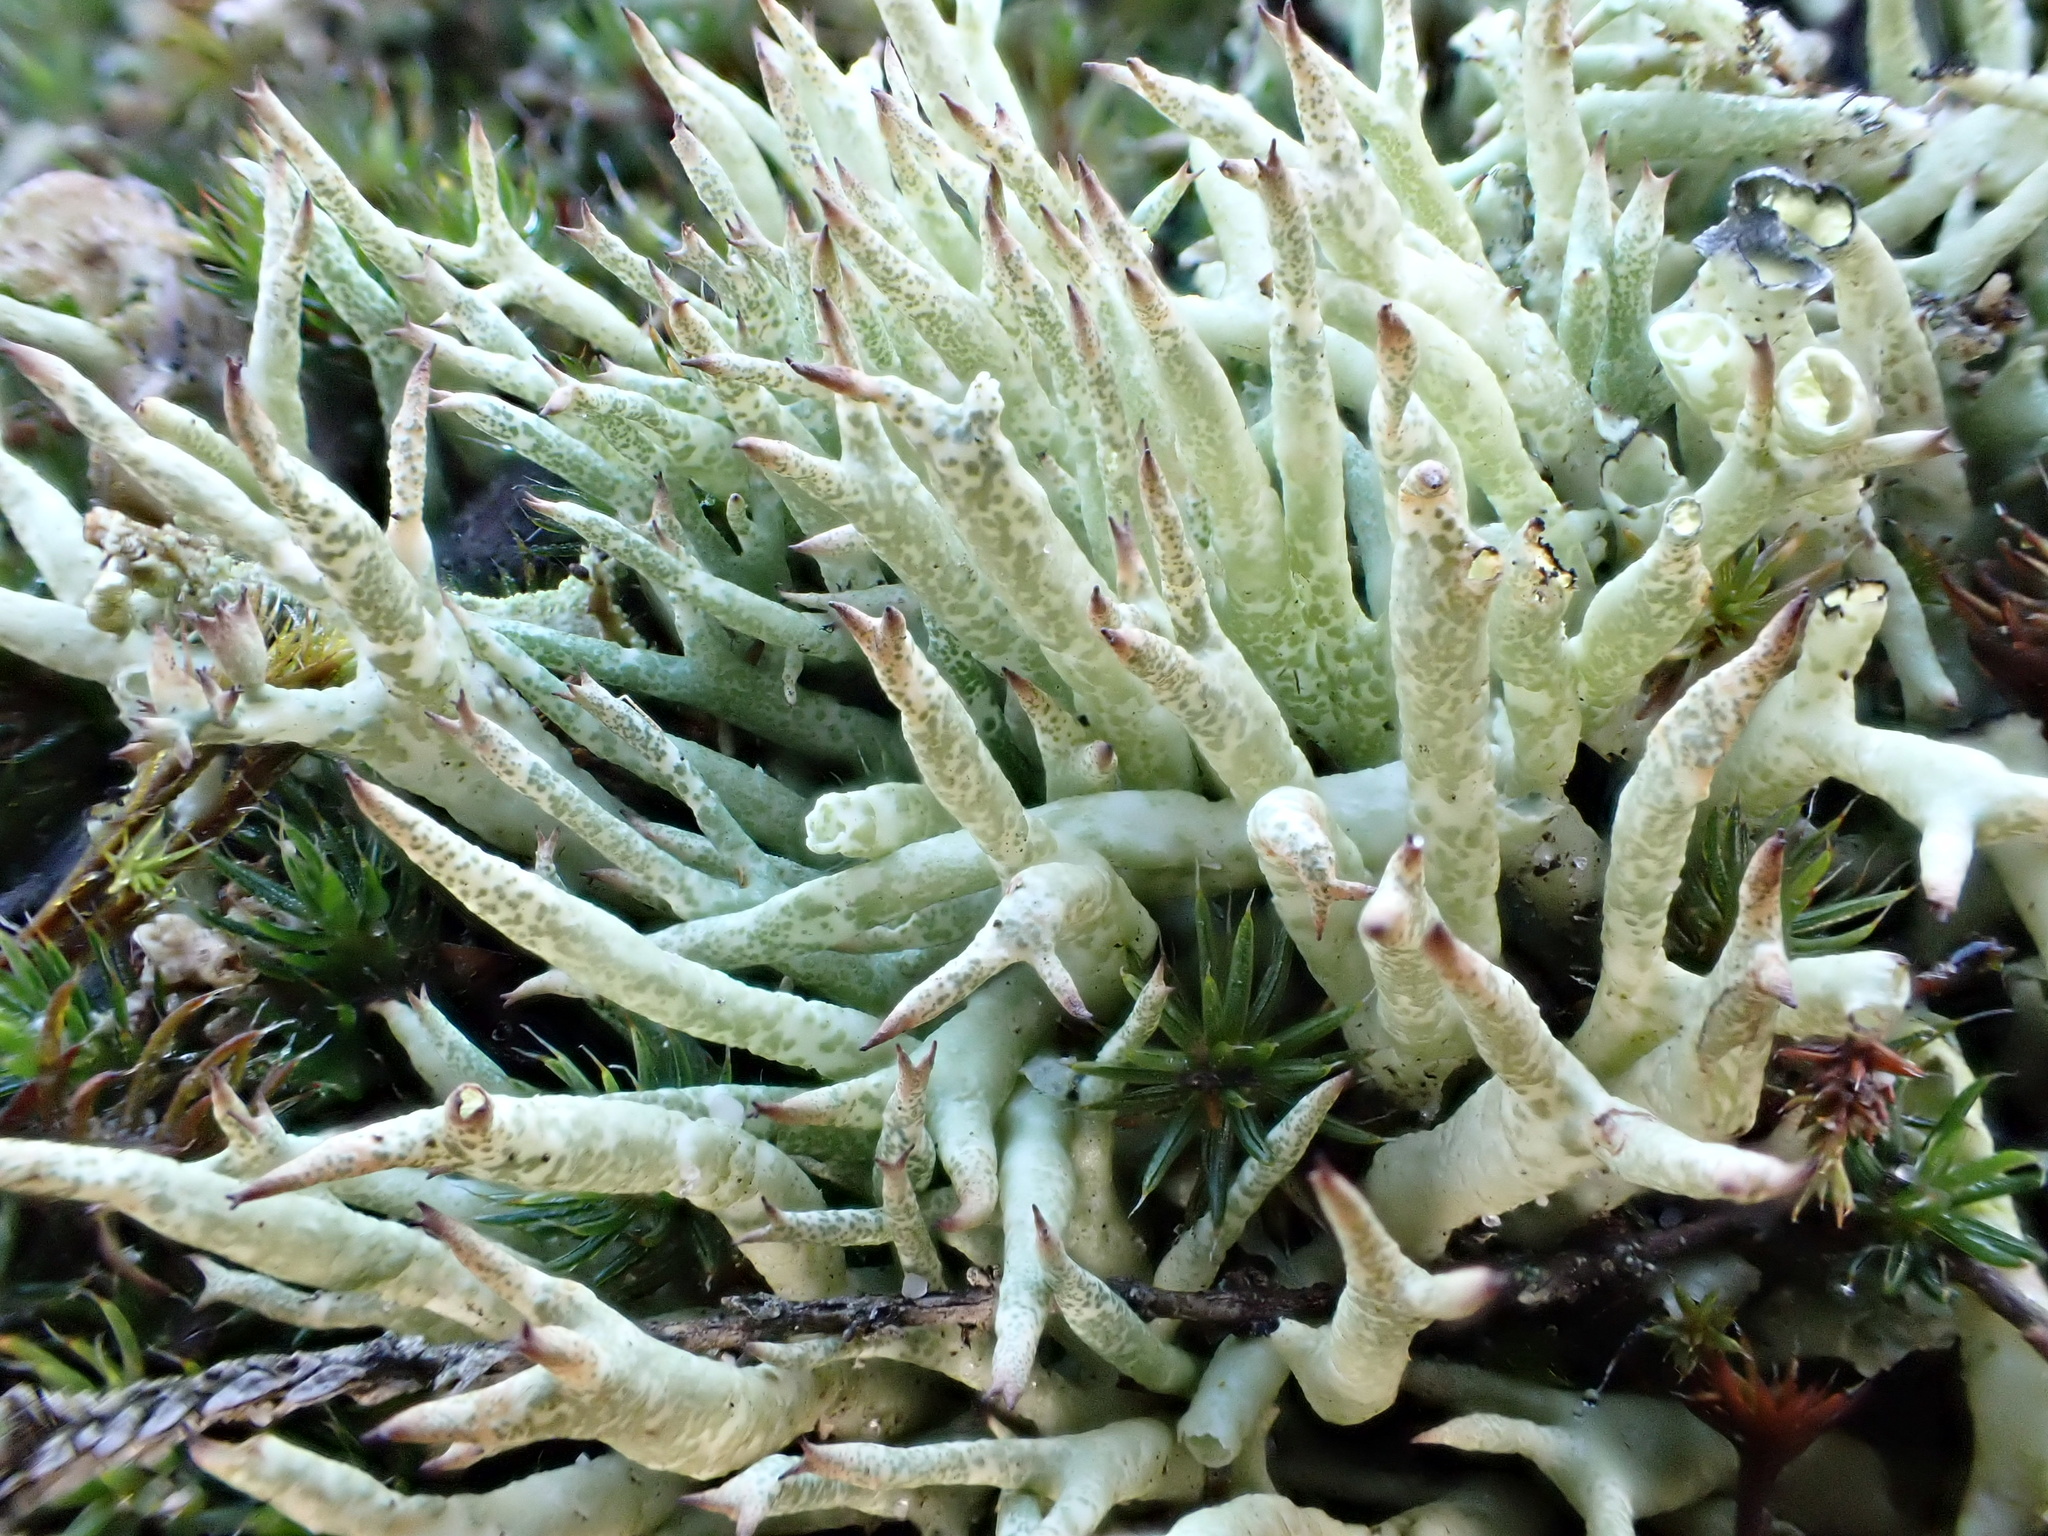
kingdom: Fungi
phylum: Ascomycota
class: Lecanoromycetes
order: Lecanorales
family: Cladoniaceae
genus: Cladonia
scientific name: Cladonia uncialis
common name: Thorn lichen
